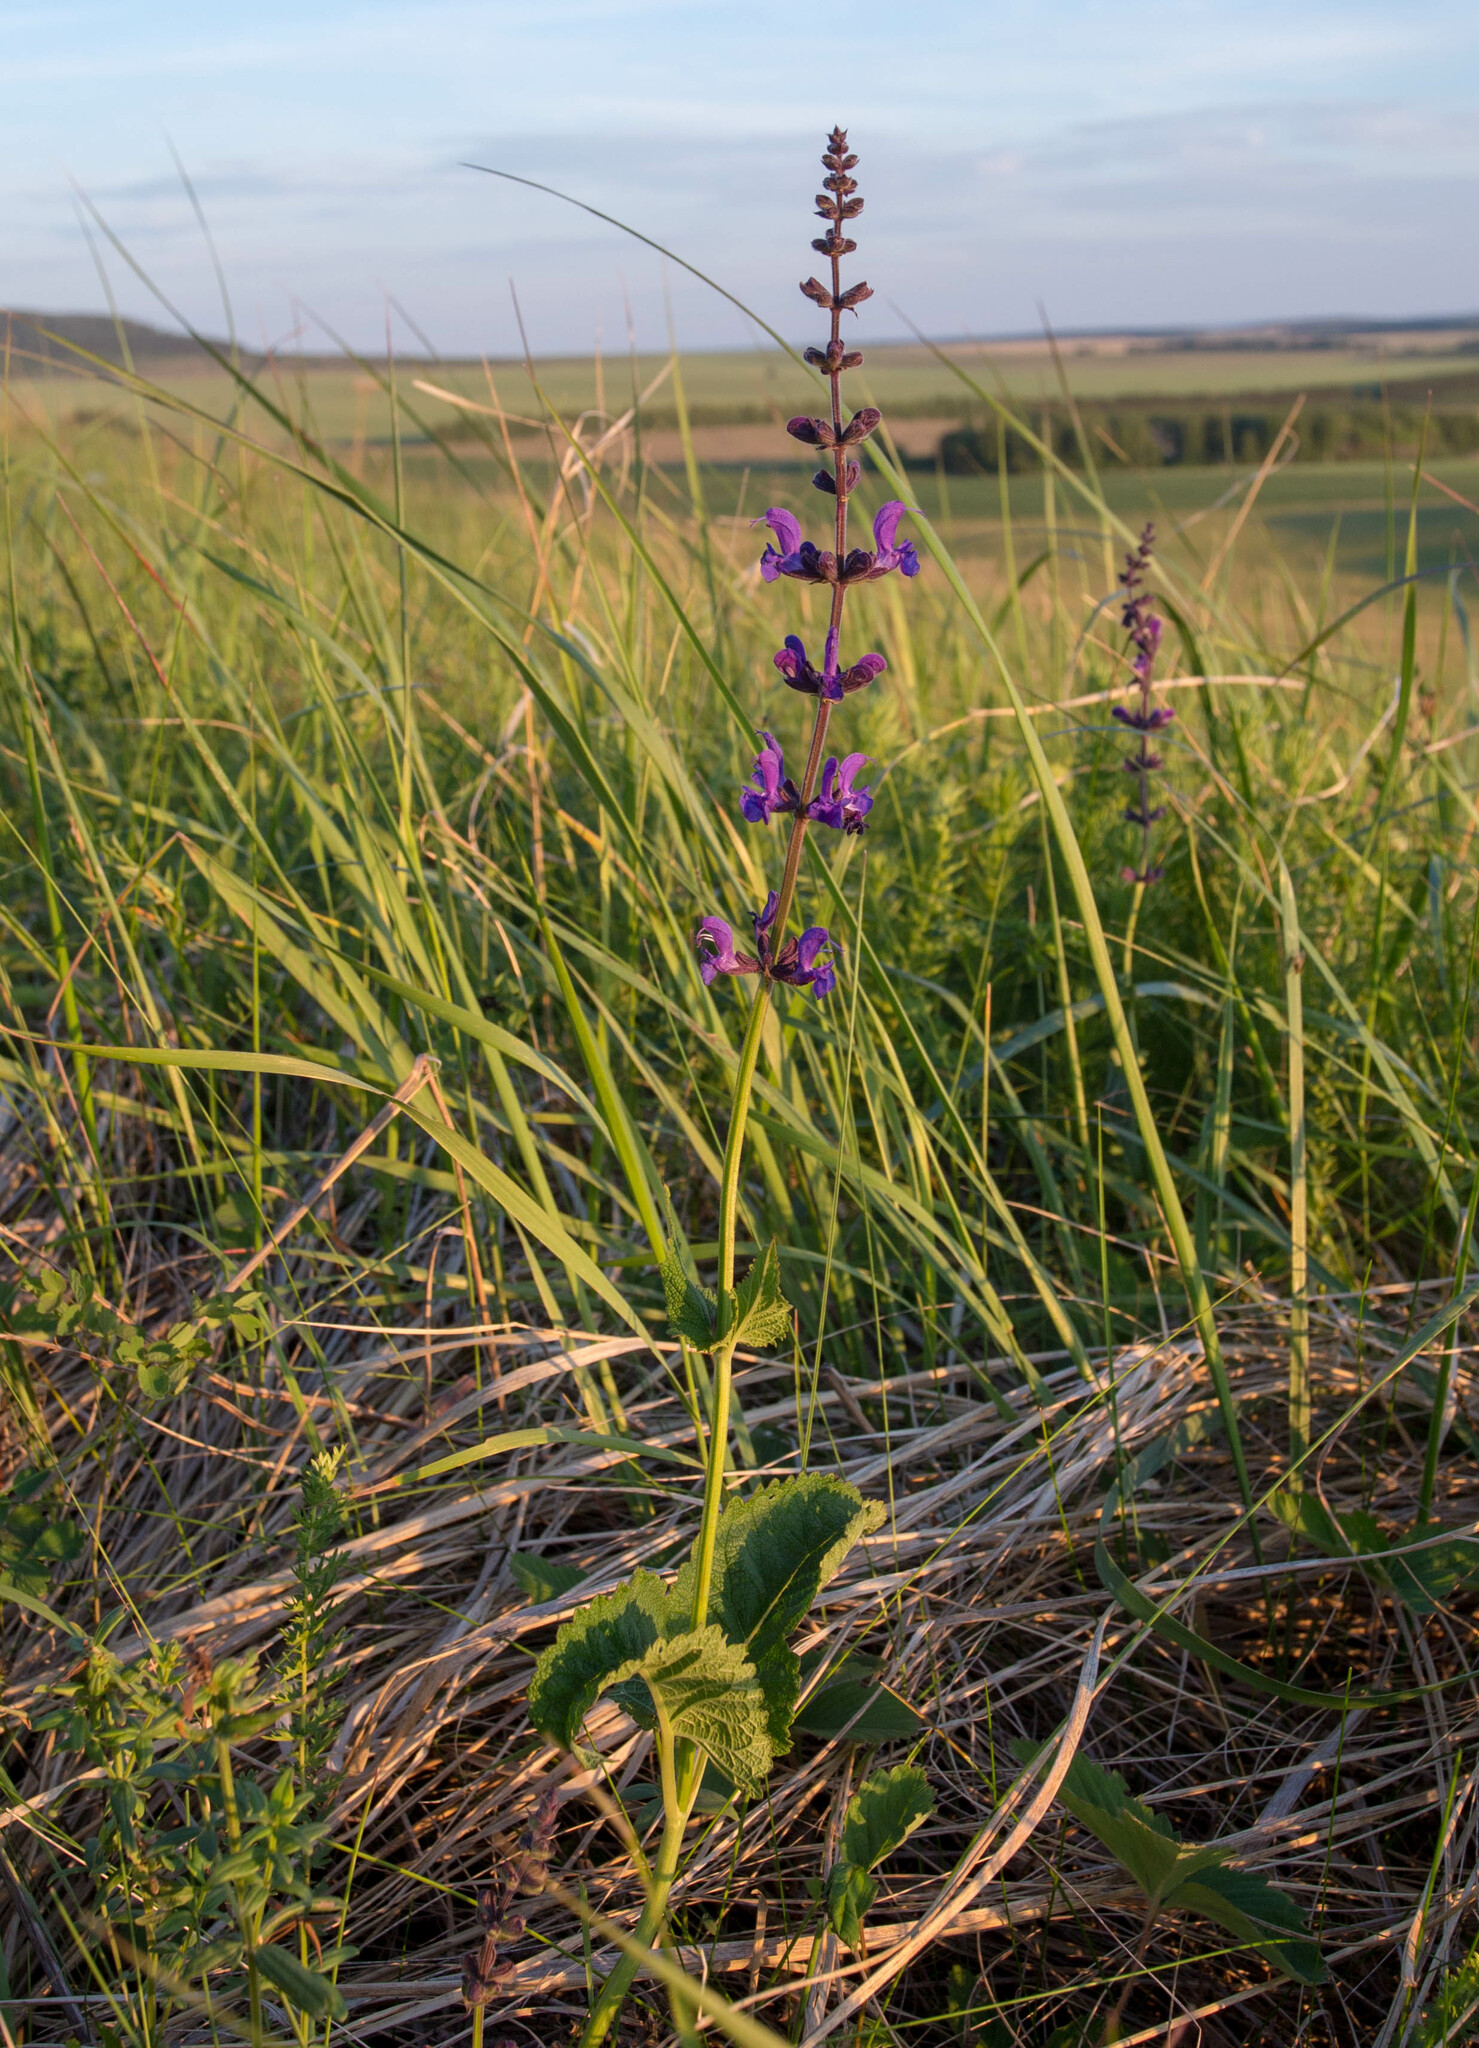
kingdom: Plantae
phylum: Tracheophyta
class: Magnoliopsida
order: Lamiales
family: Lamiaceae
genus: Salvia
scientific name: Salvia dumetorum
